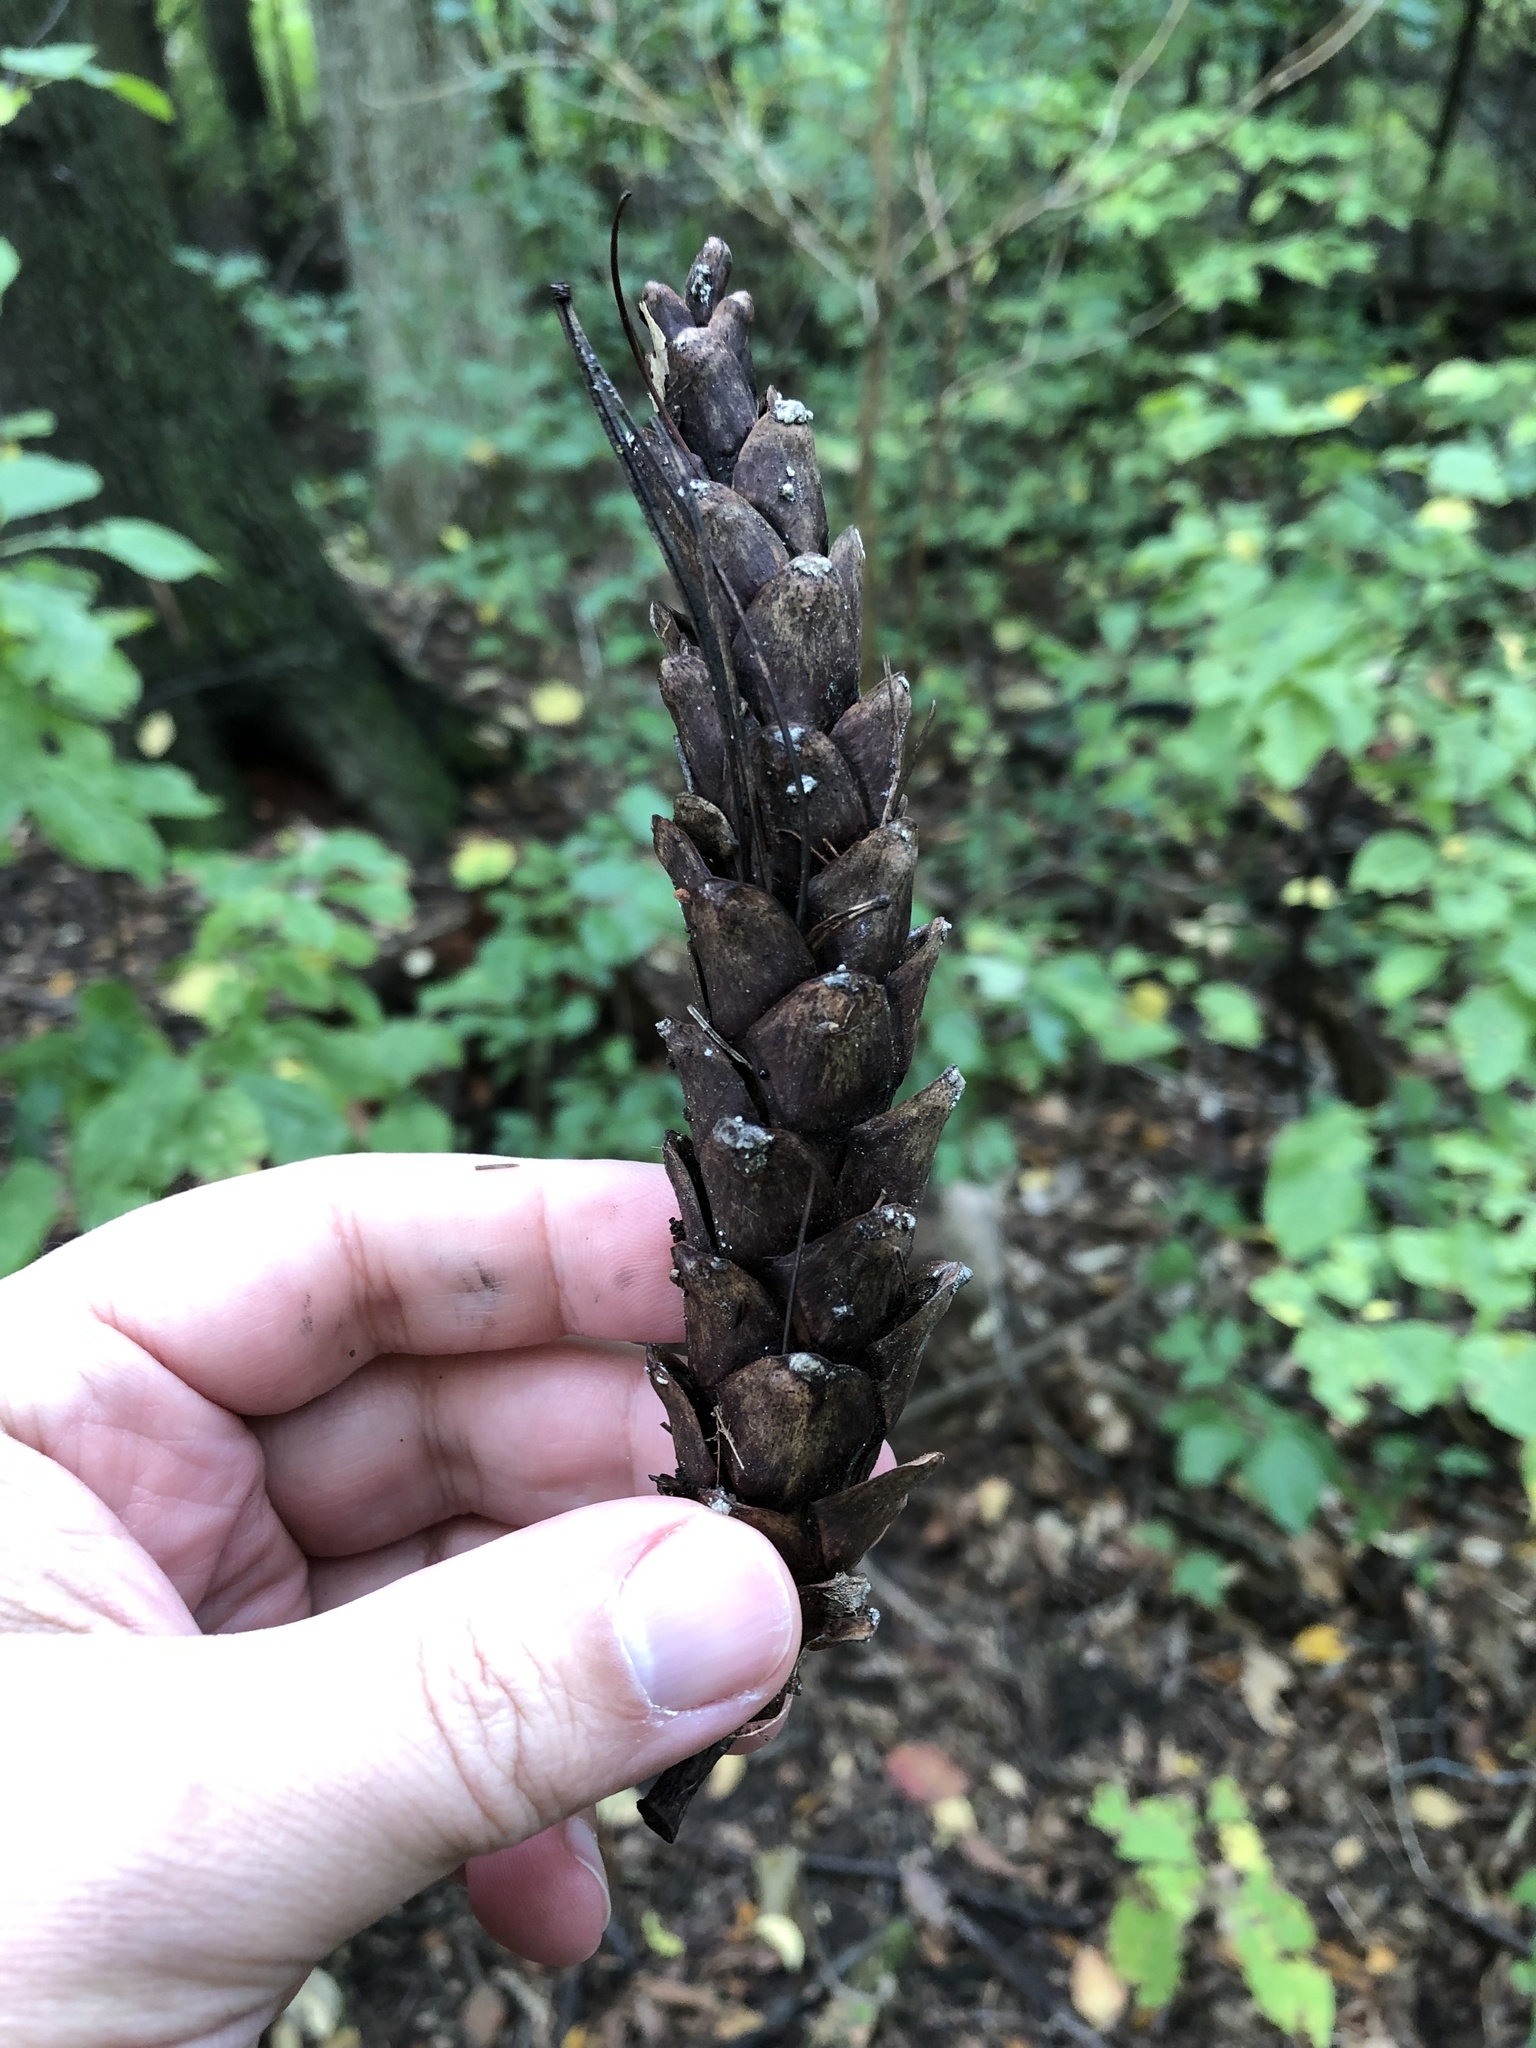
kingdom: Plantae
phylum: Tracheophyta
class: Pinopsida
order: Pinales
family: Pinaceae
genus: Pinus
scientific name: Pinus strobus
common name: Weymouth pine
